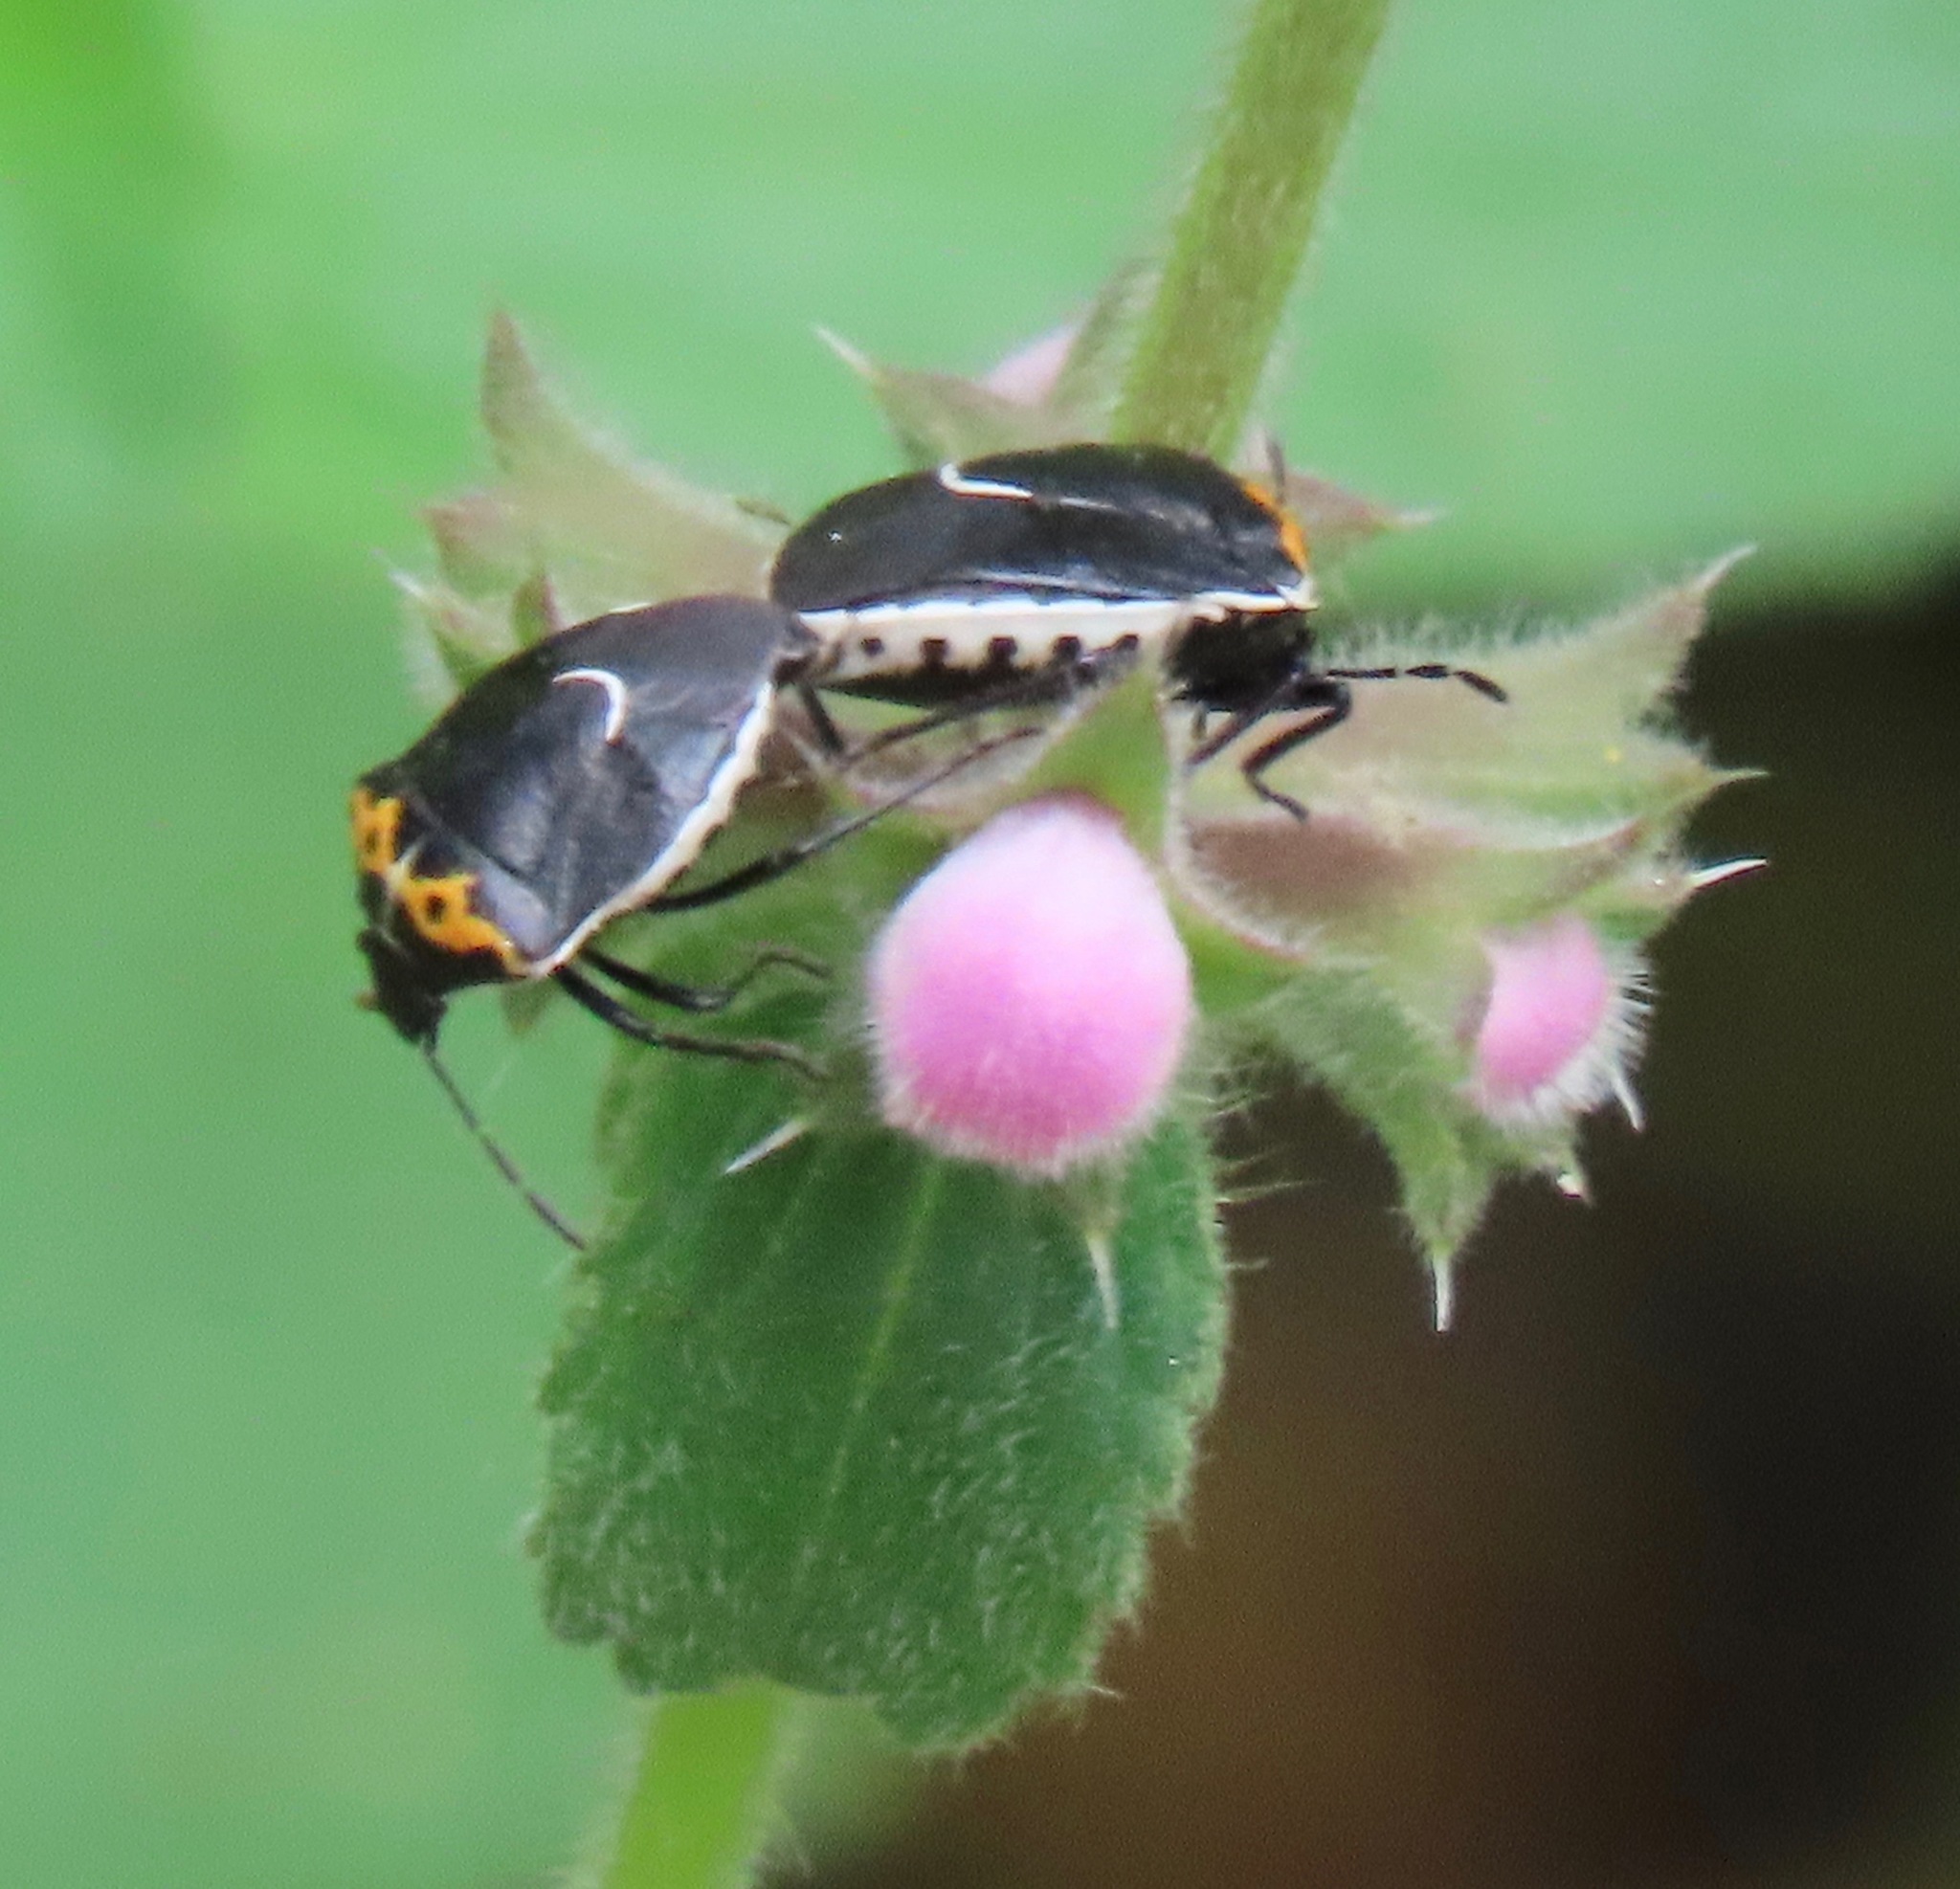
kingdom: Animalia
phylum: Arthropoda
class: Insecta
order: Hemiptera
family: Pentatomidae
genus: Cosmopepla
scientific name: Cosmopepla conspicillaris
